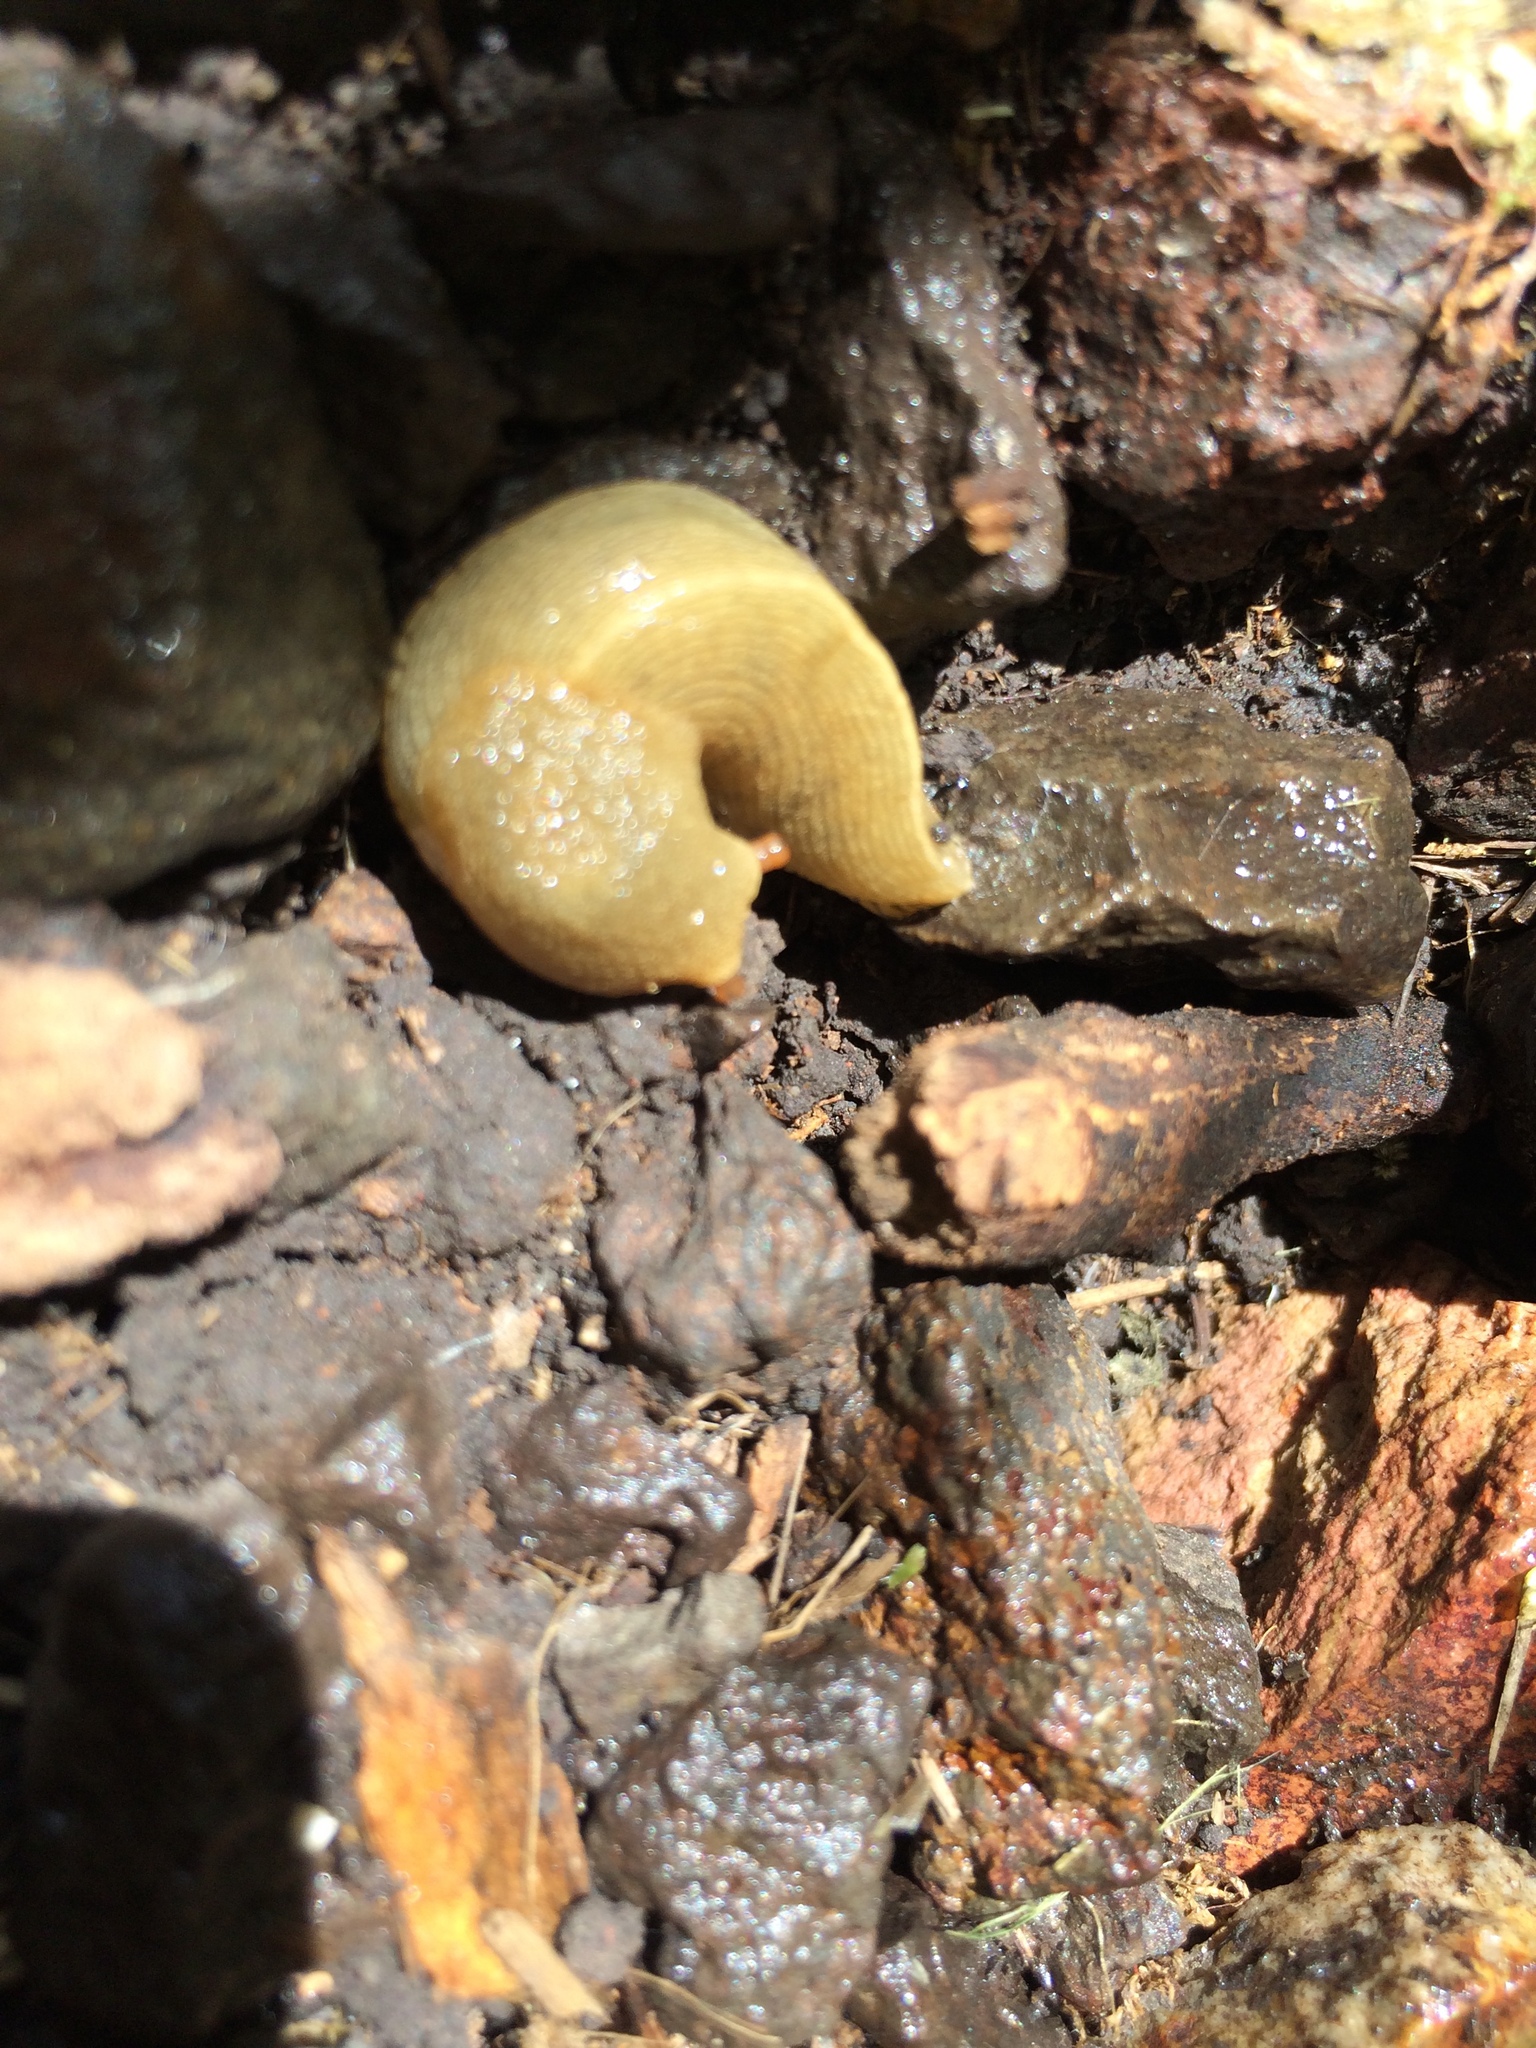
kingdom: Animalia
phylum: Mollusca
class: Gastropoda
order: Stylommatophora
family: Ariolimacidae
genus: Ariolimax
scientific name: Ariolimax buttoni
